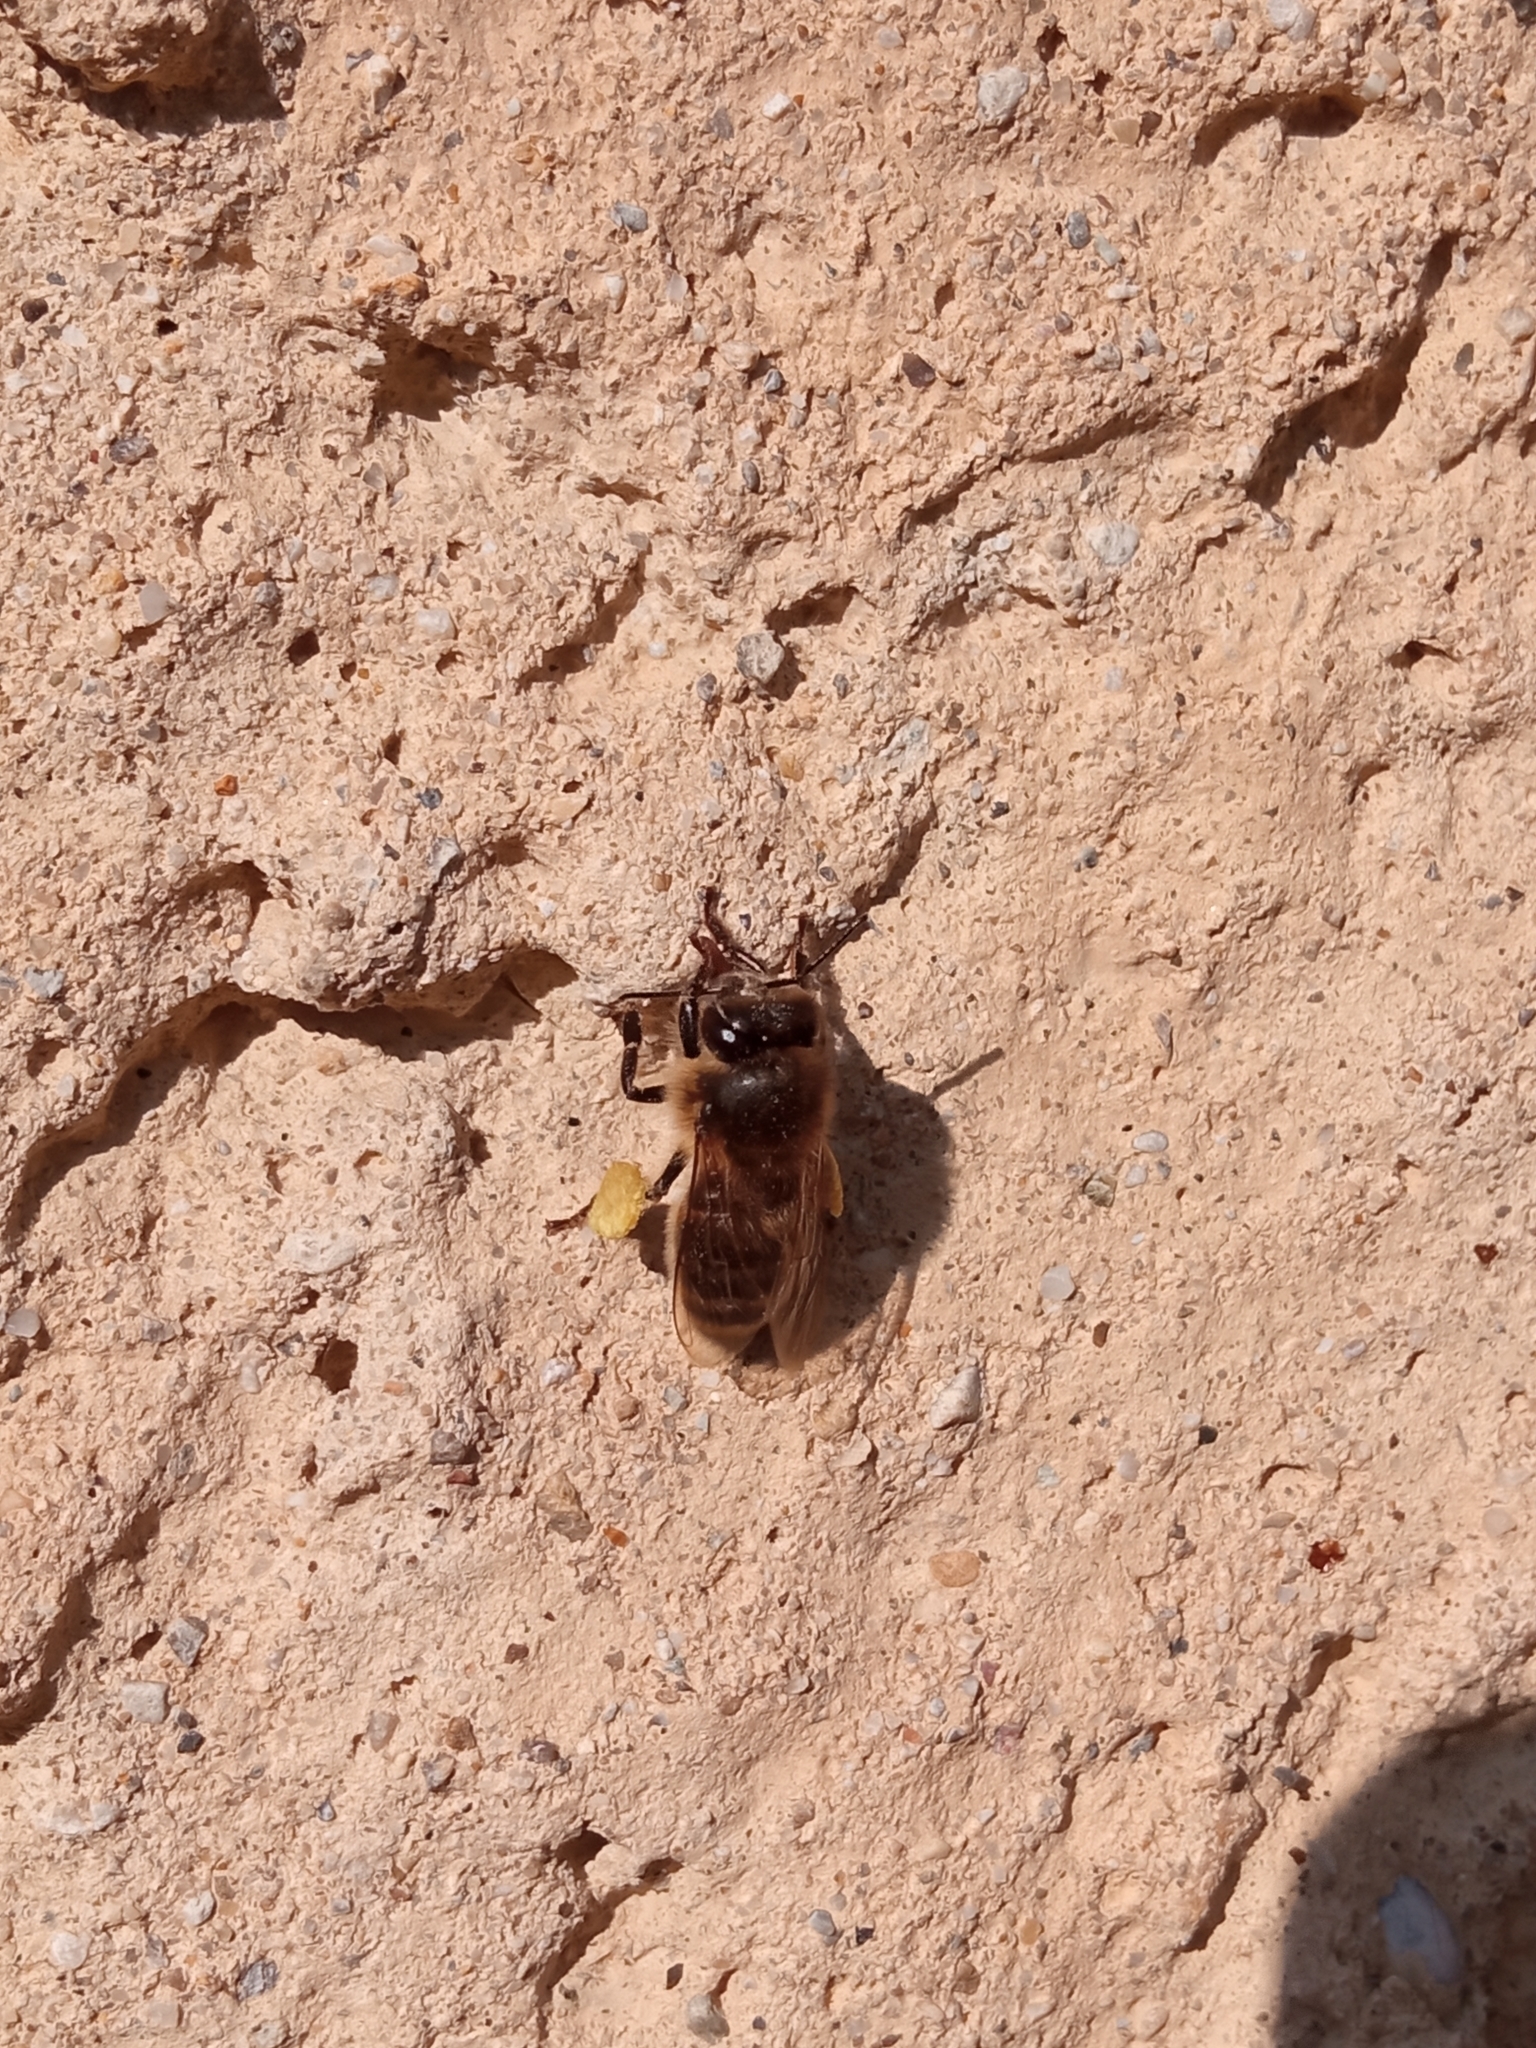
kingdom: Animalia
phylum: Arthropoda
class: Insecta
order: Hymenoptera
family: Apidae
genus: Apis
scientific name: Apis mellifera
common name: Honey bee
